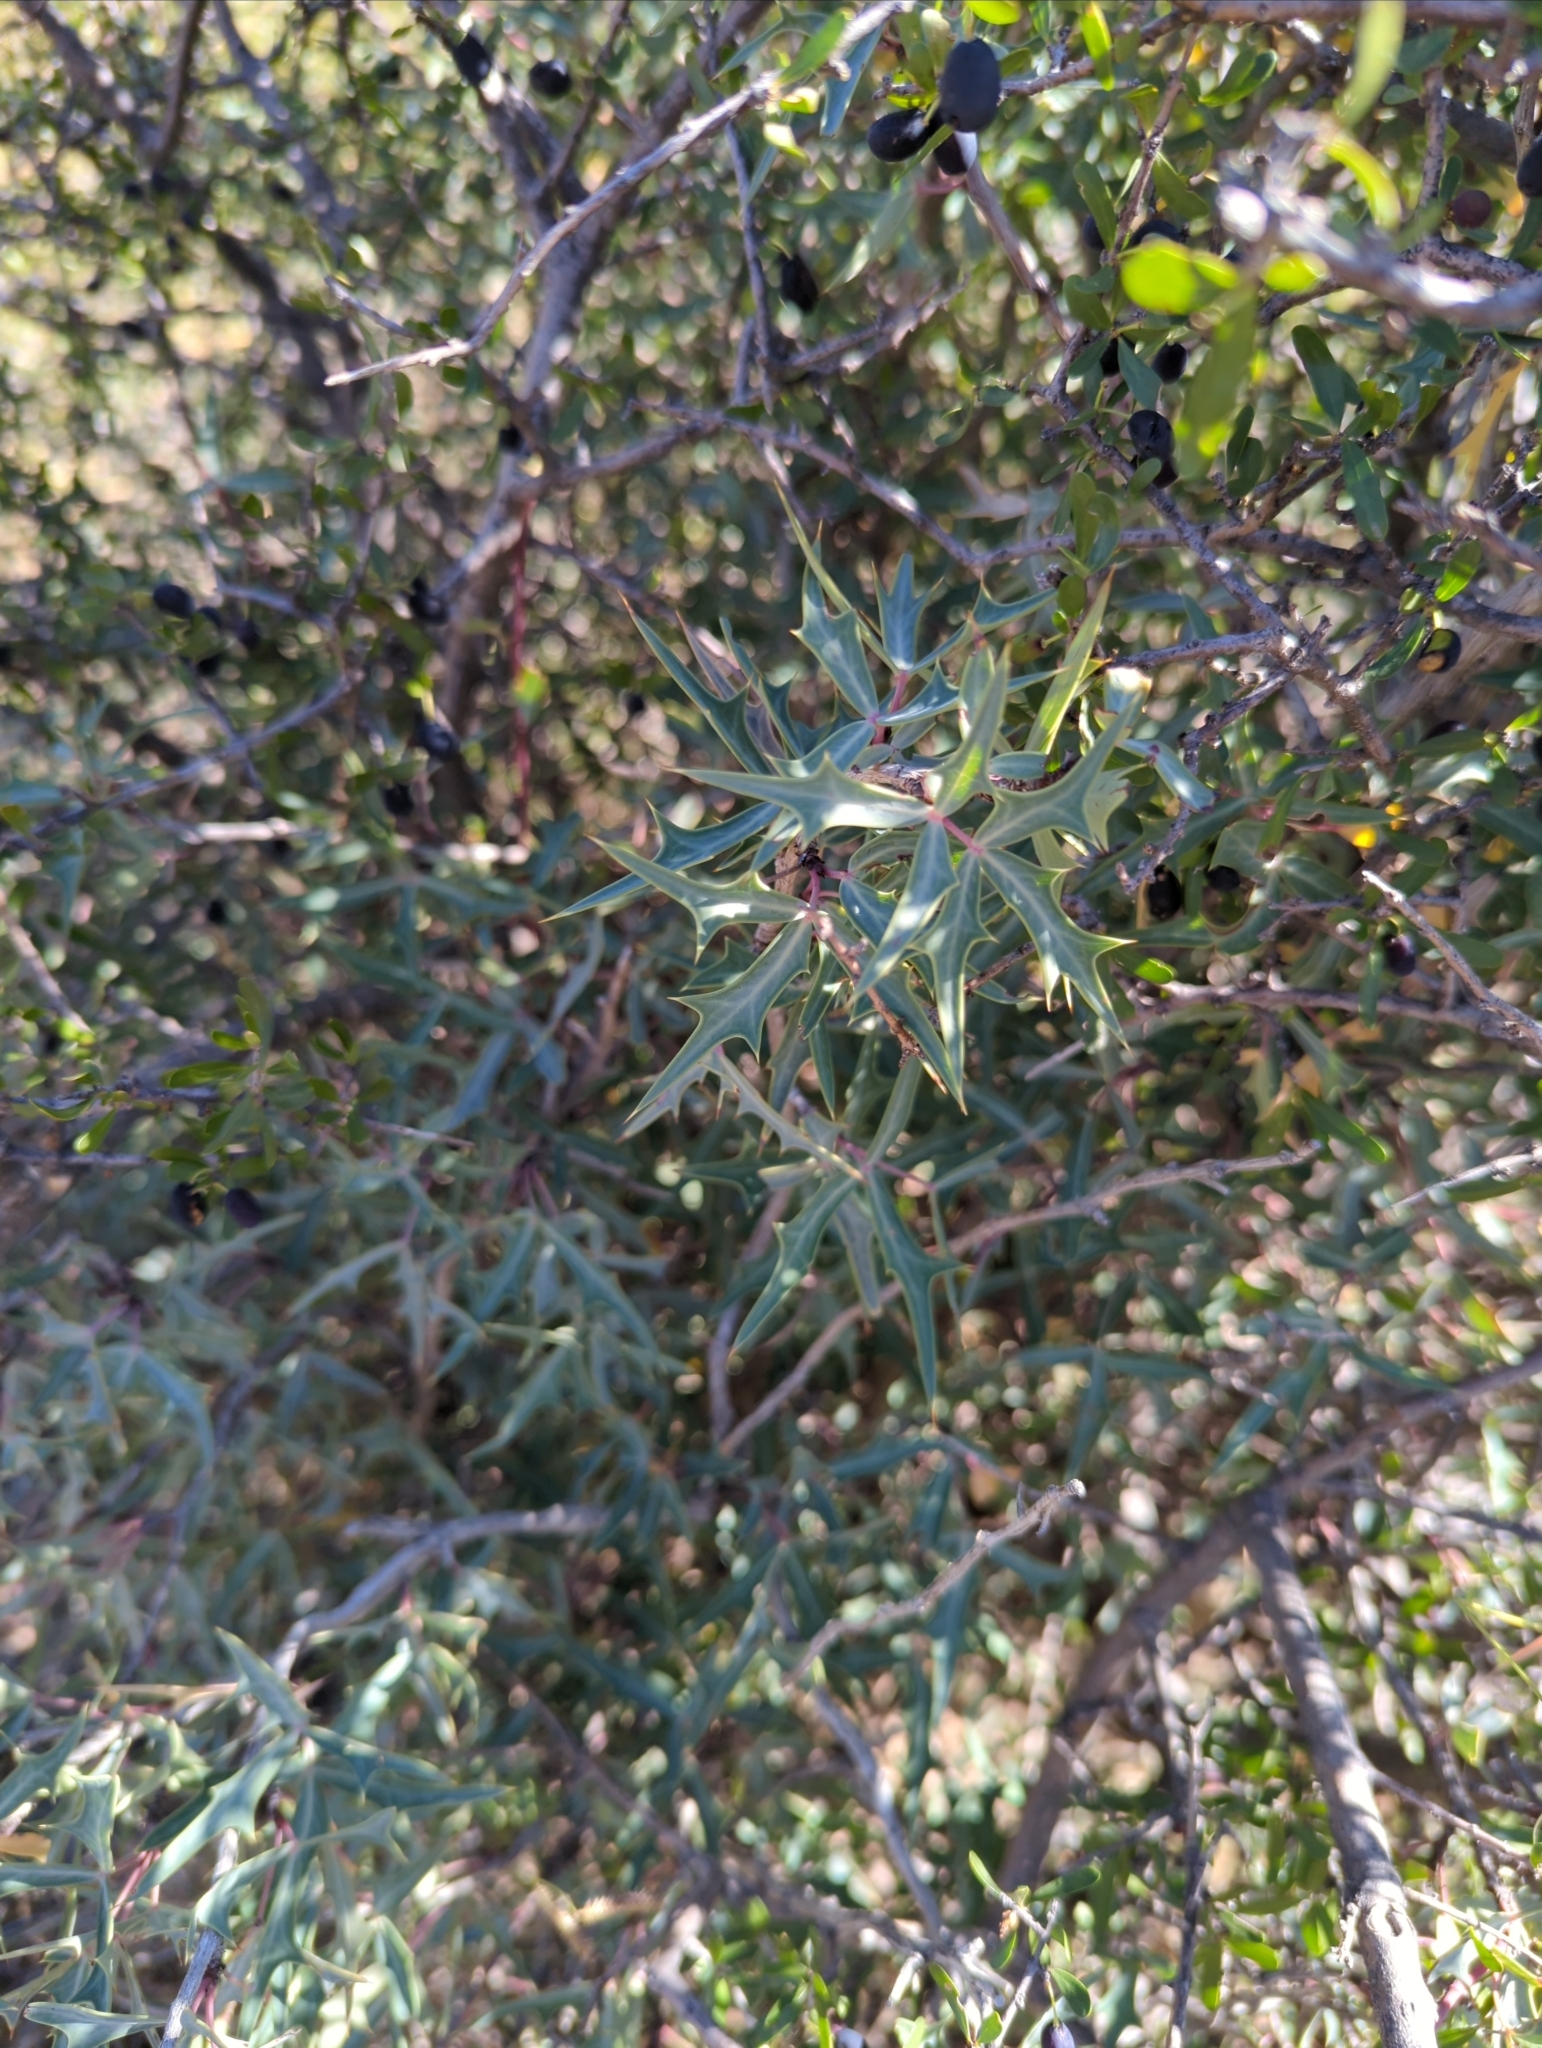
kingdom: Plantae
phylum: Tracheophyta
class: Magnoliopsida
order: Ranunculales
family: Berberidaceae
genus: Alloberberis
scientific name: Alloberberis trifoliolata
